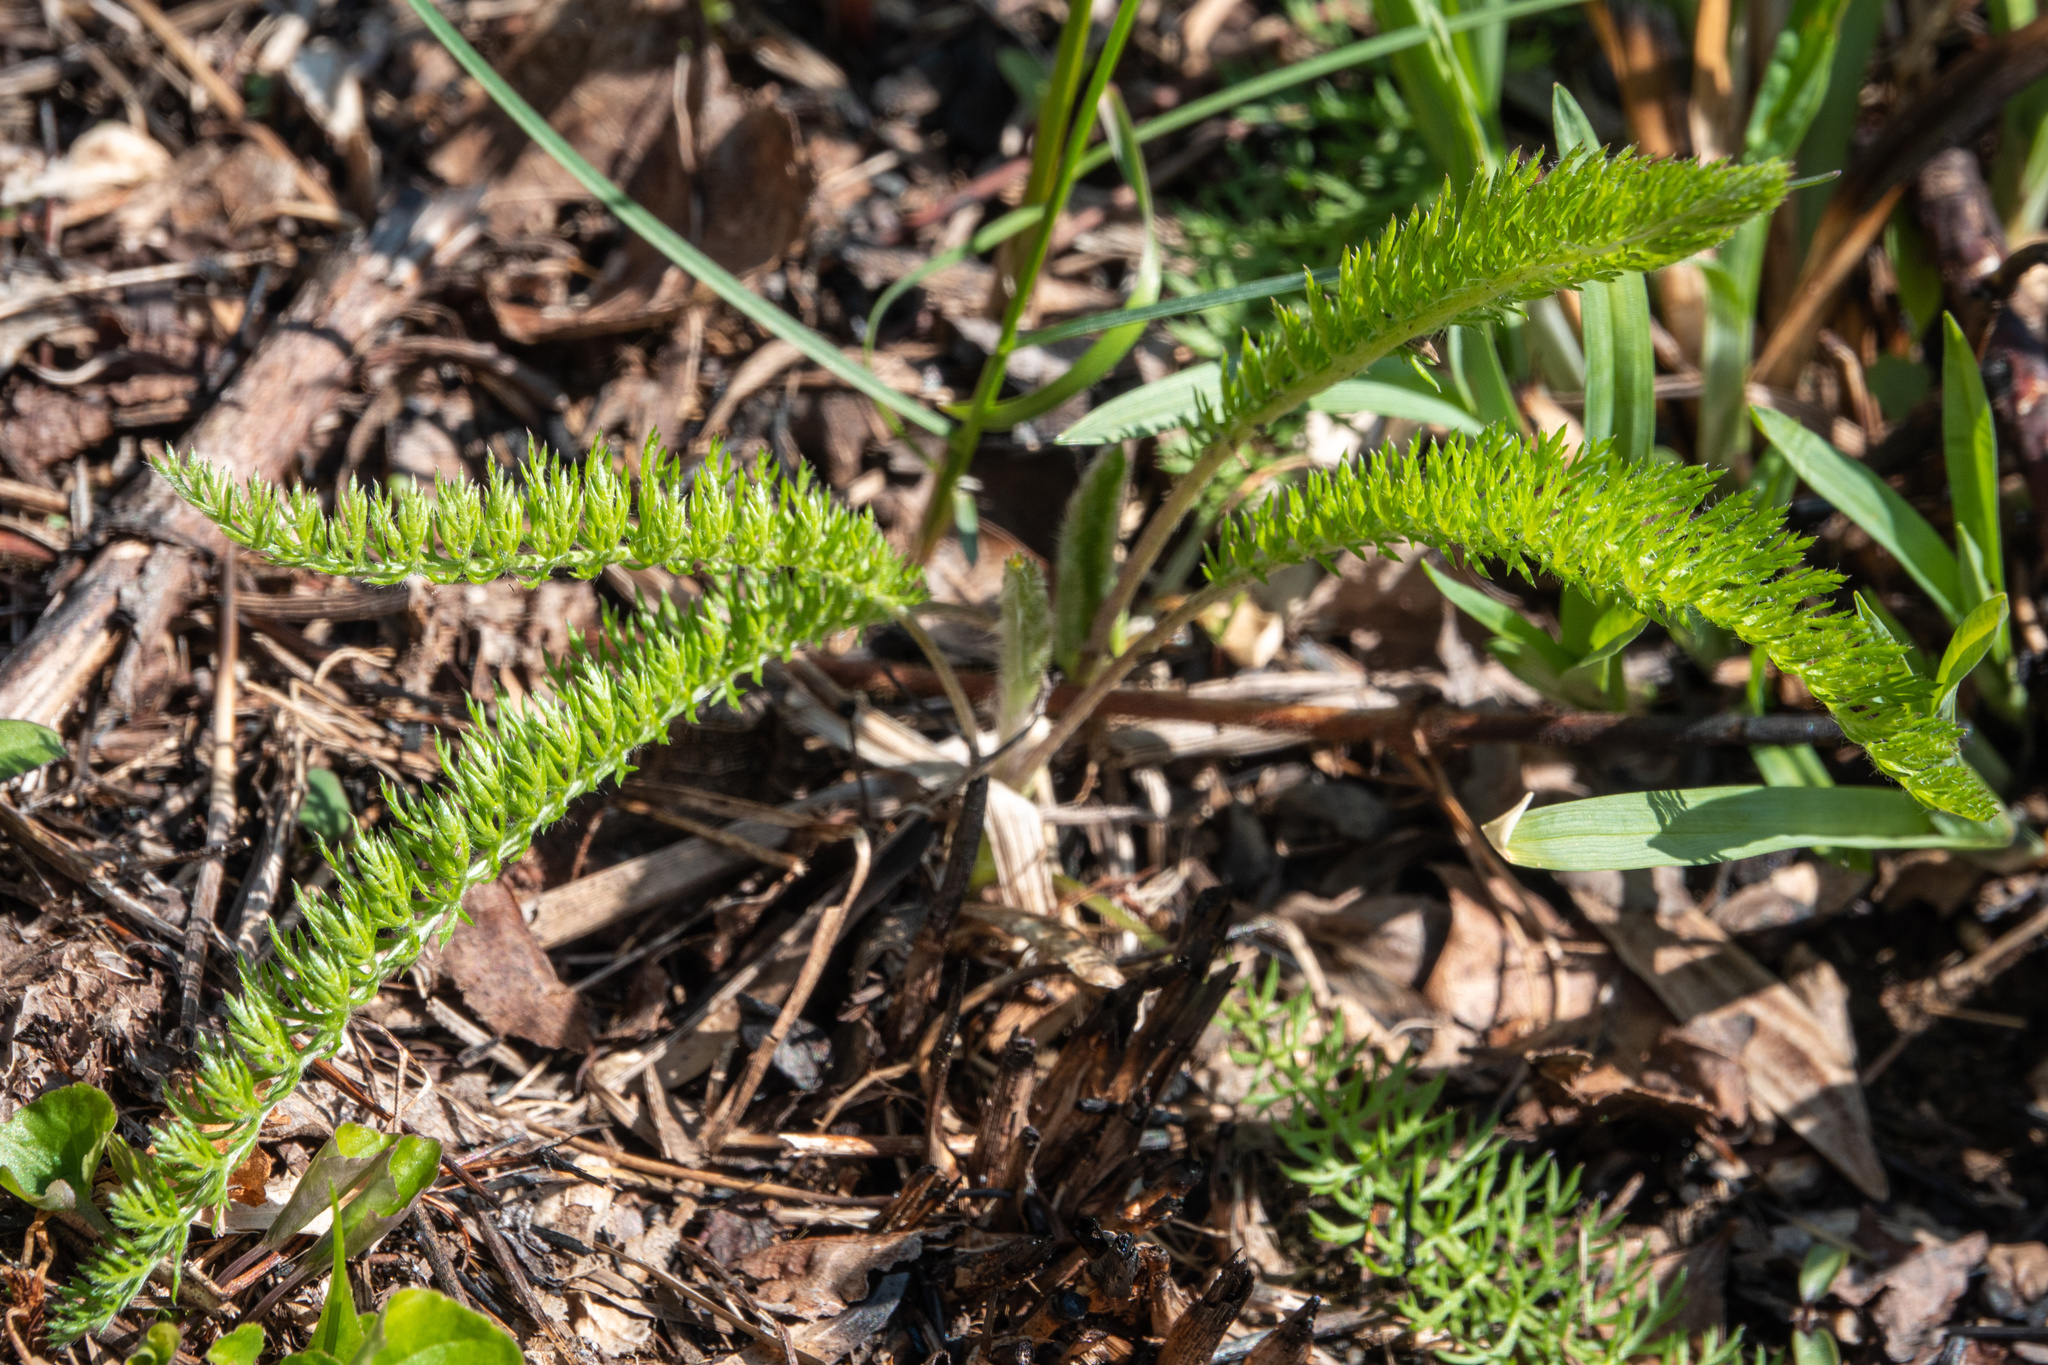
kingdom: Plantae
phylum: Tracheophyta
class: Magnoliopsida
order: Asterales
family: Asteraceae
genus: Achillea
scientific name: Achillea millefolium
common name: Yarrow
